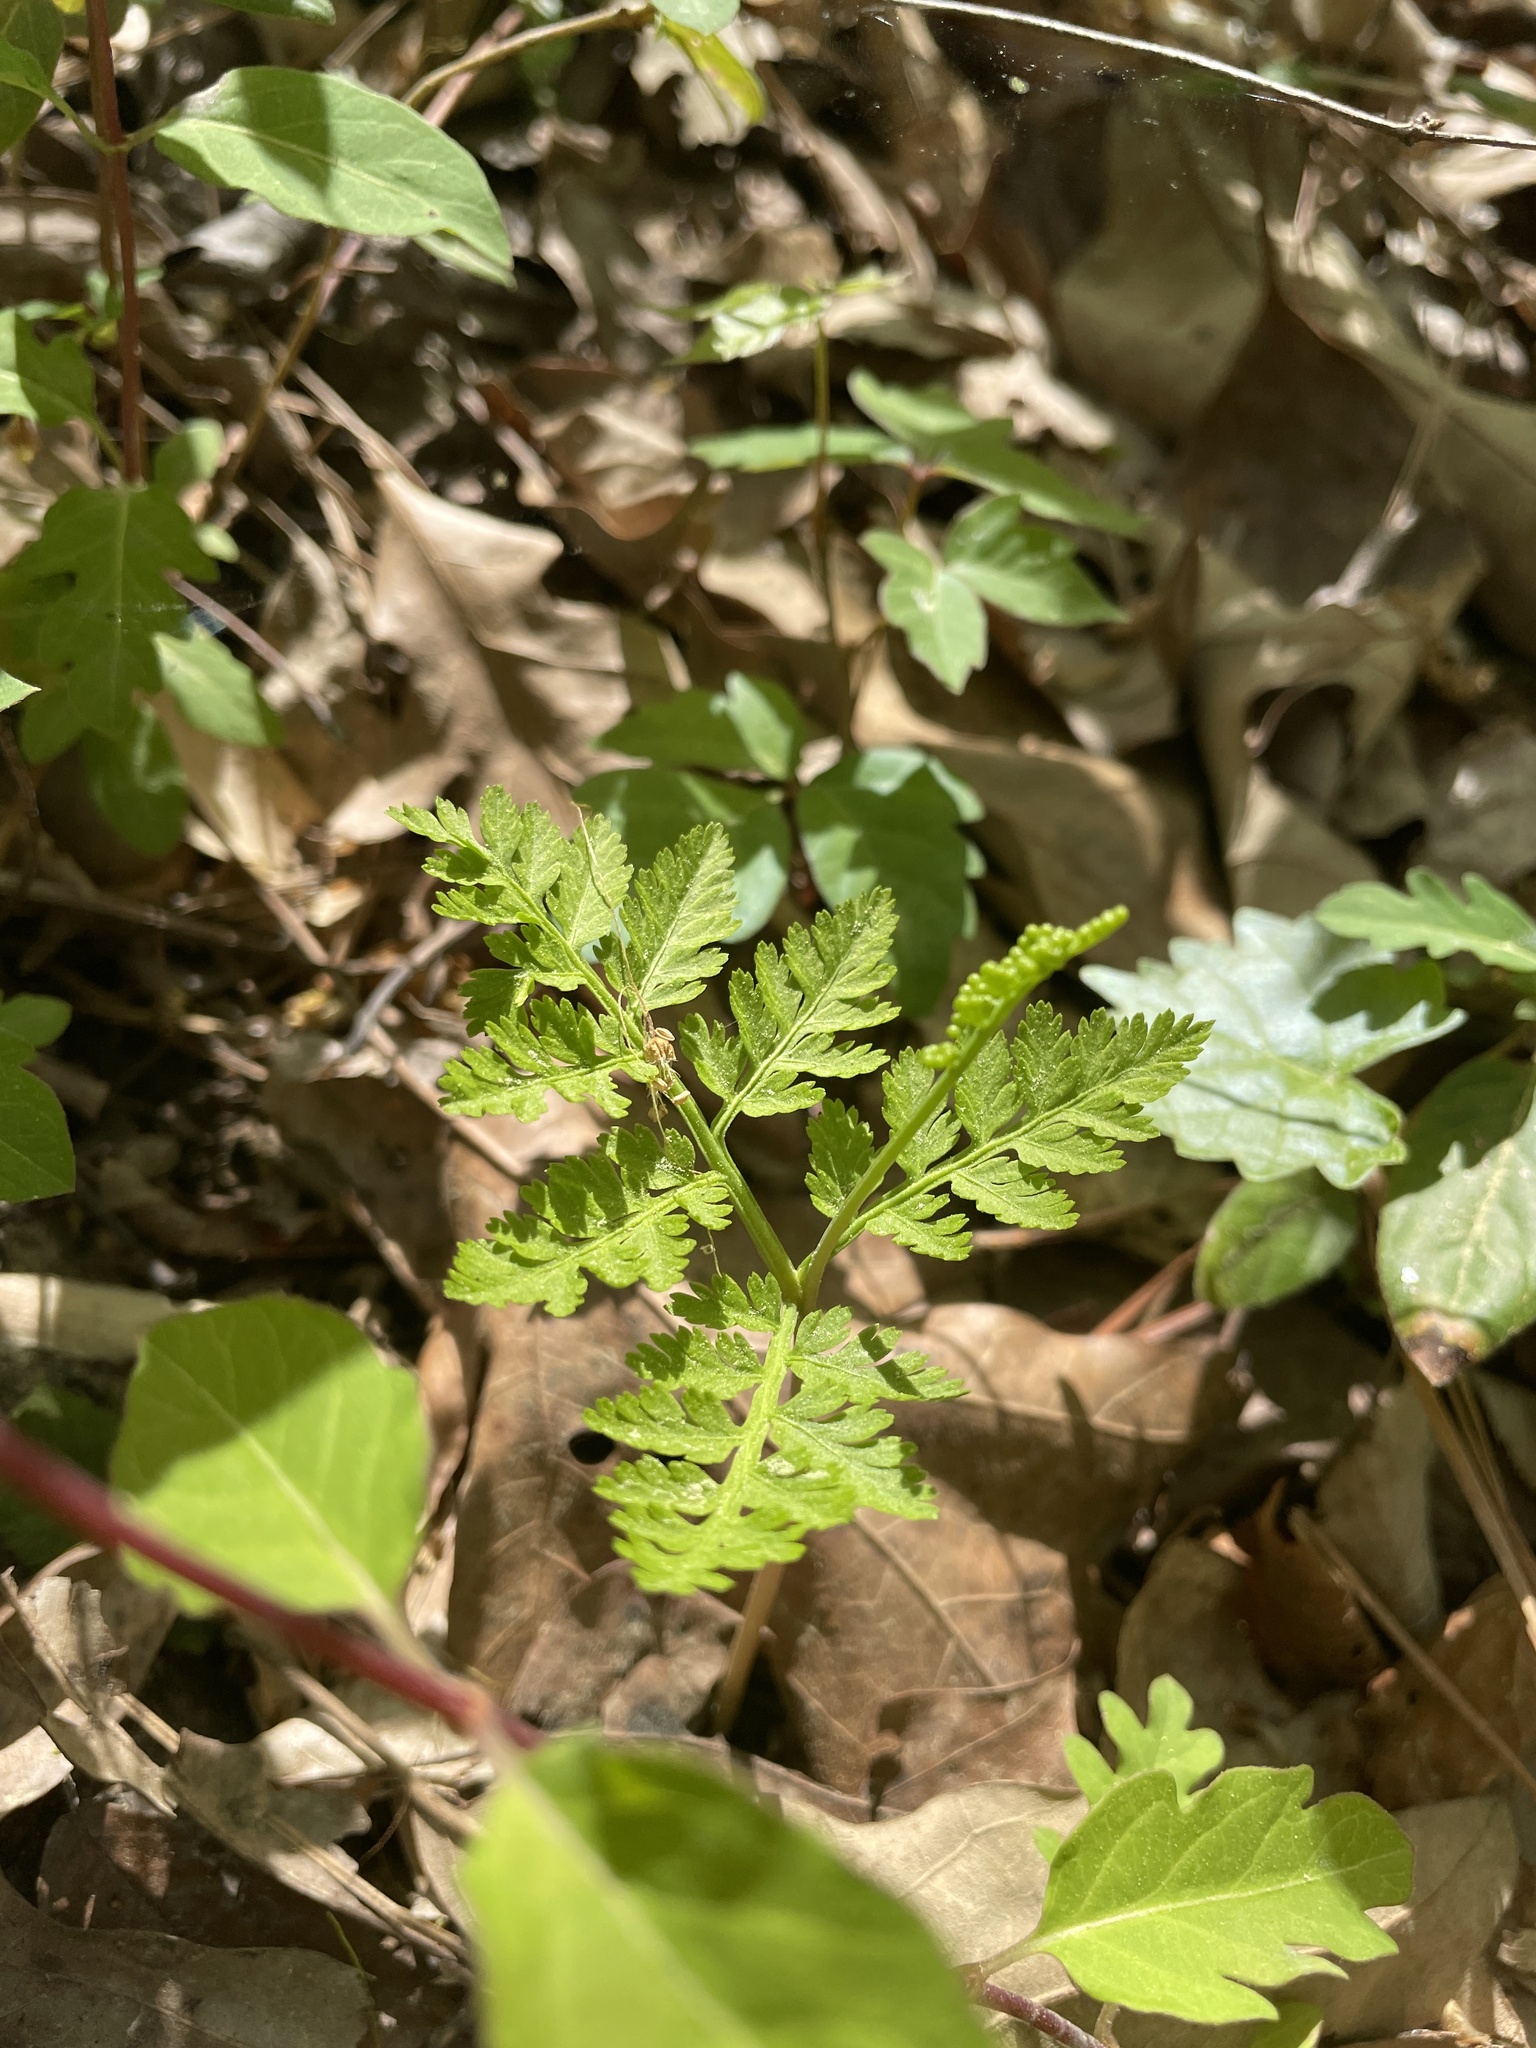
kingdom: Plantae
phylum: Tracheophyta
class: Polypodiopsida
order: Ophioglossales
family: Ophioglossaceae
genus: Botrypus
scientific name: Botrypus virginianus
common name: Common grapefern
